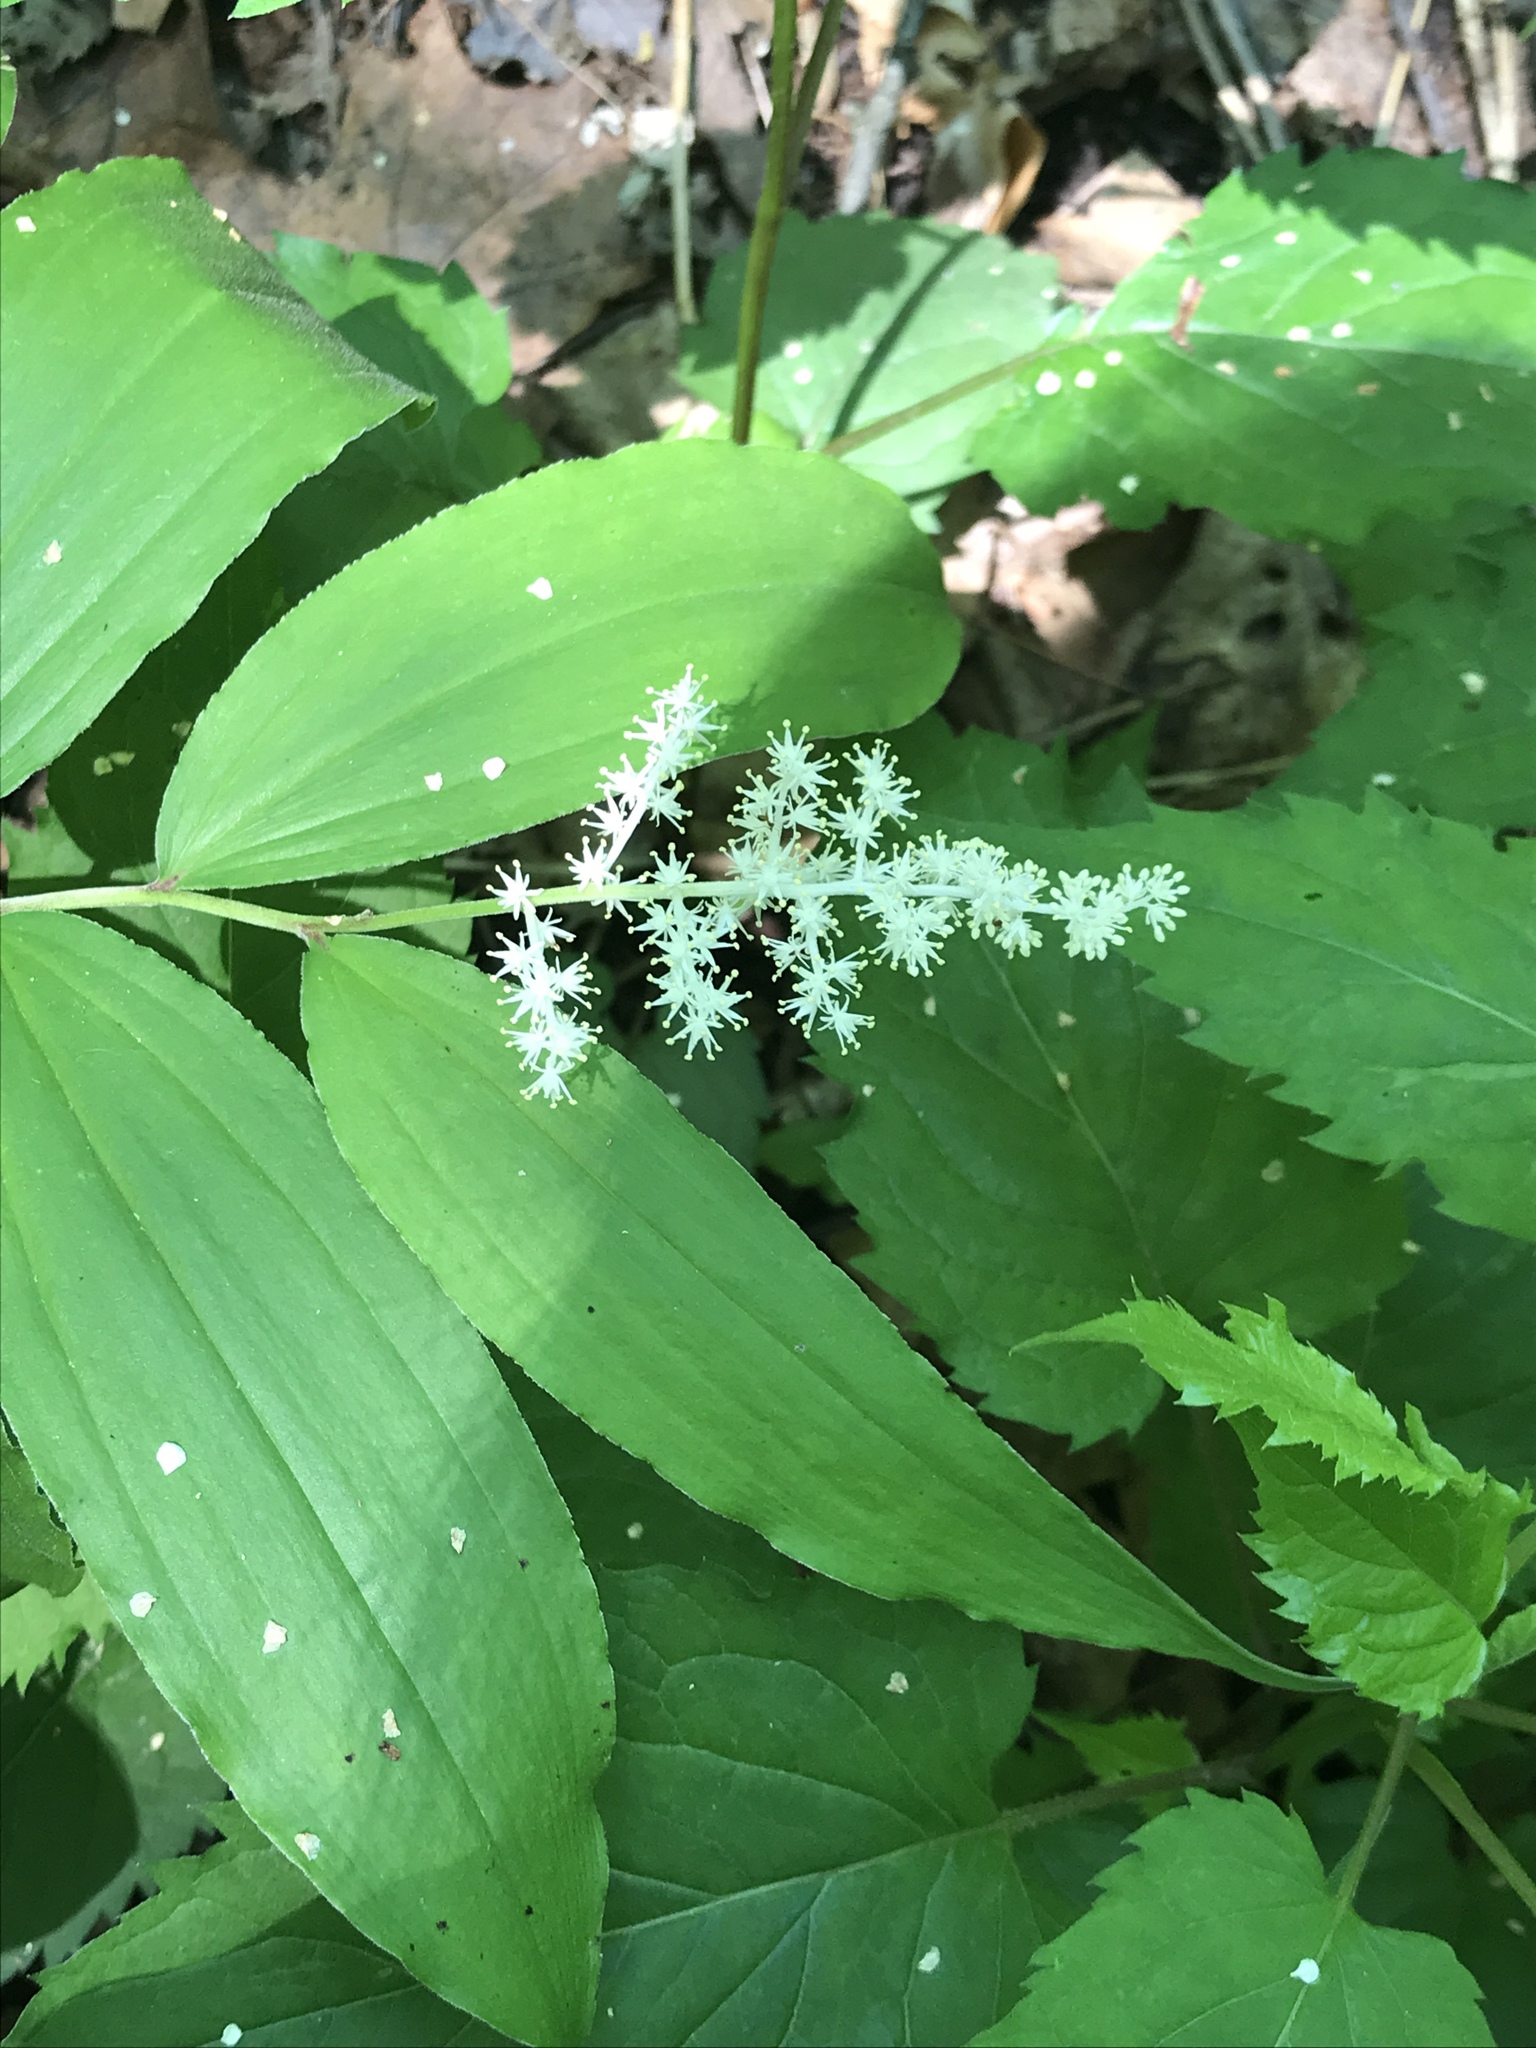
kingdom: Plantae
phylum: Tracheophyta
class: Liliopsida
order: Asparagales
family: Asparagaceae
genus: Maianthemum
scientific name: Maianthemum racemosum
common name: False spikenard
